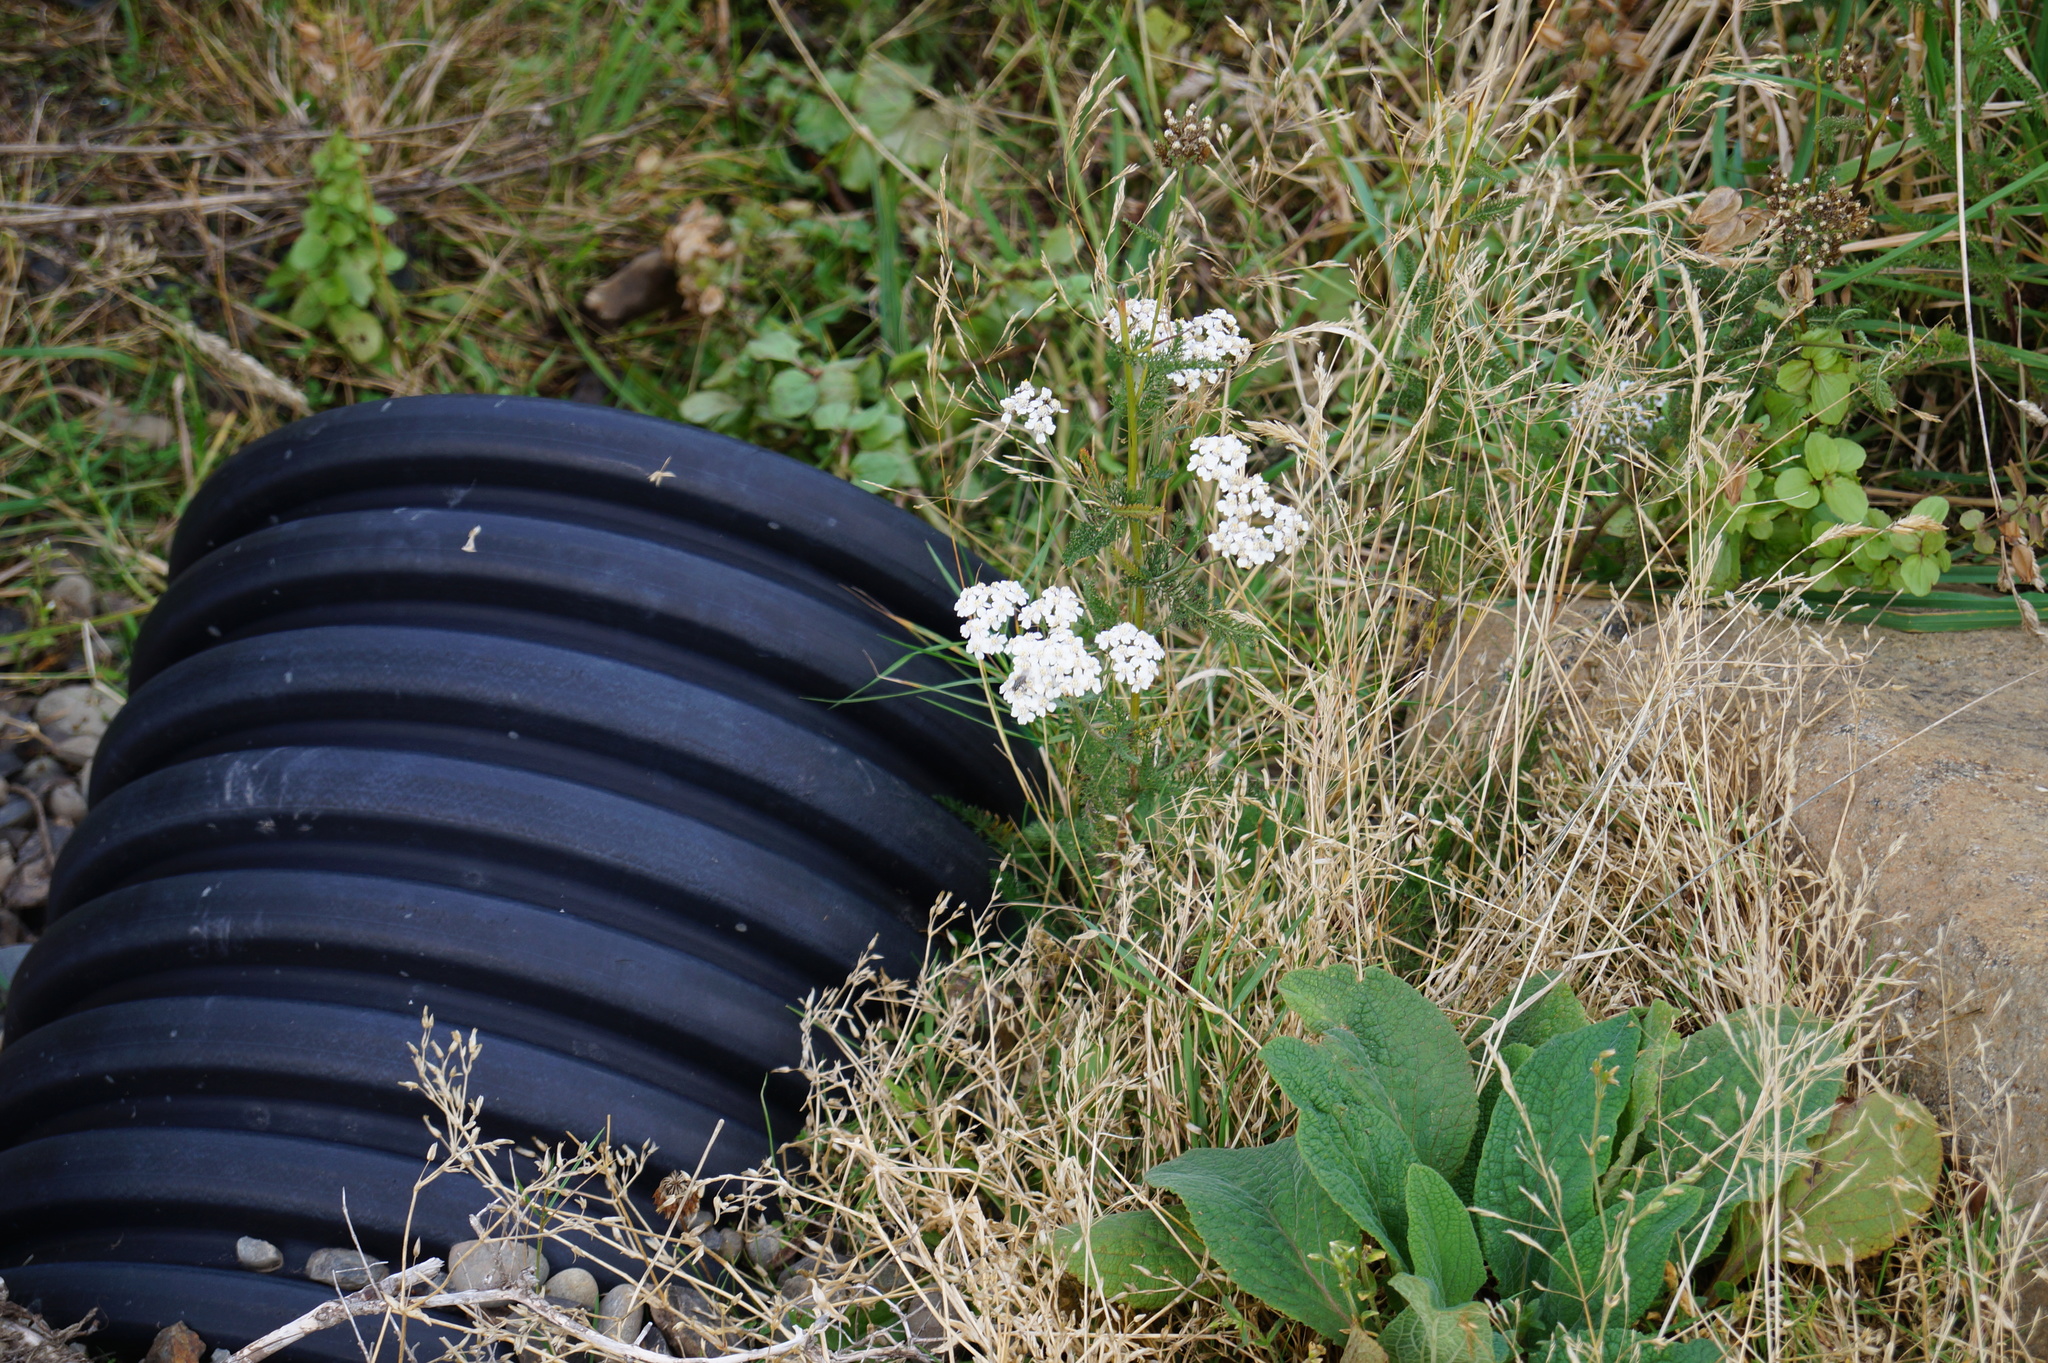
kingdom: Plantae
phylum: Tracheophyta
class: Magnoliopsida
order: Asterales
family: Asteraceae
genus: Achillea
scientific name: Achillea millefolium
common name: Yarrow
